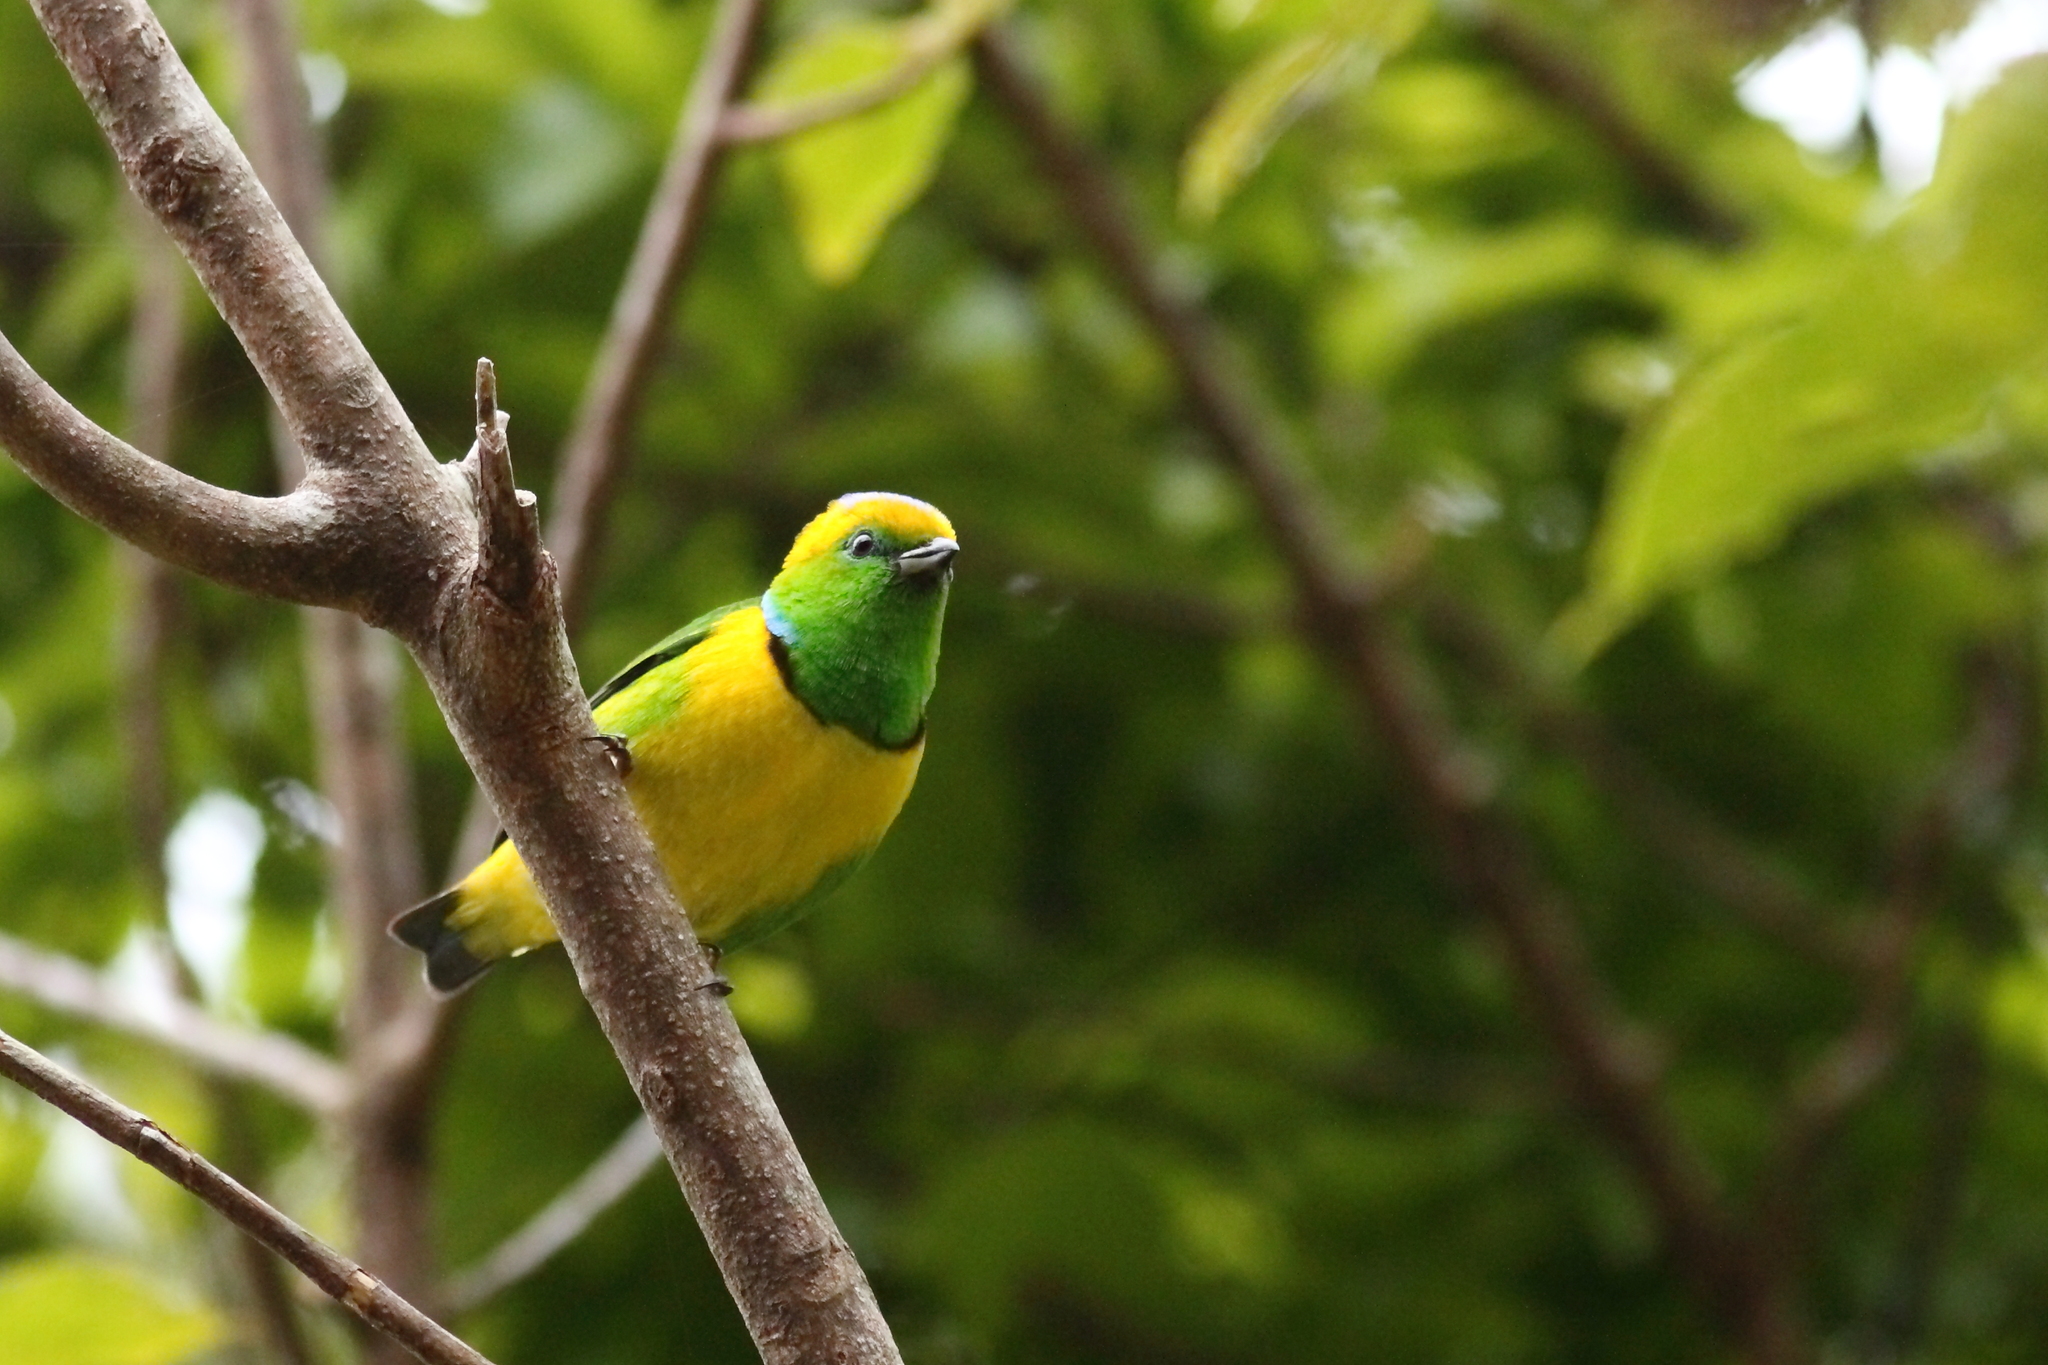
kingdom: Animalia
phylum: Chordata
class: Aves
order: Passeriformes
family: Fringillidae
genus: Chlorophonia
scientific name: Chlorophonia callophrys
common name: Golden-browed chlorophonia
